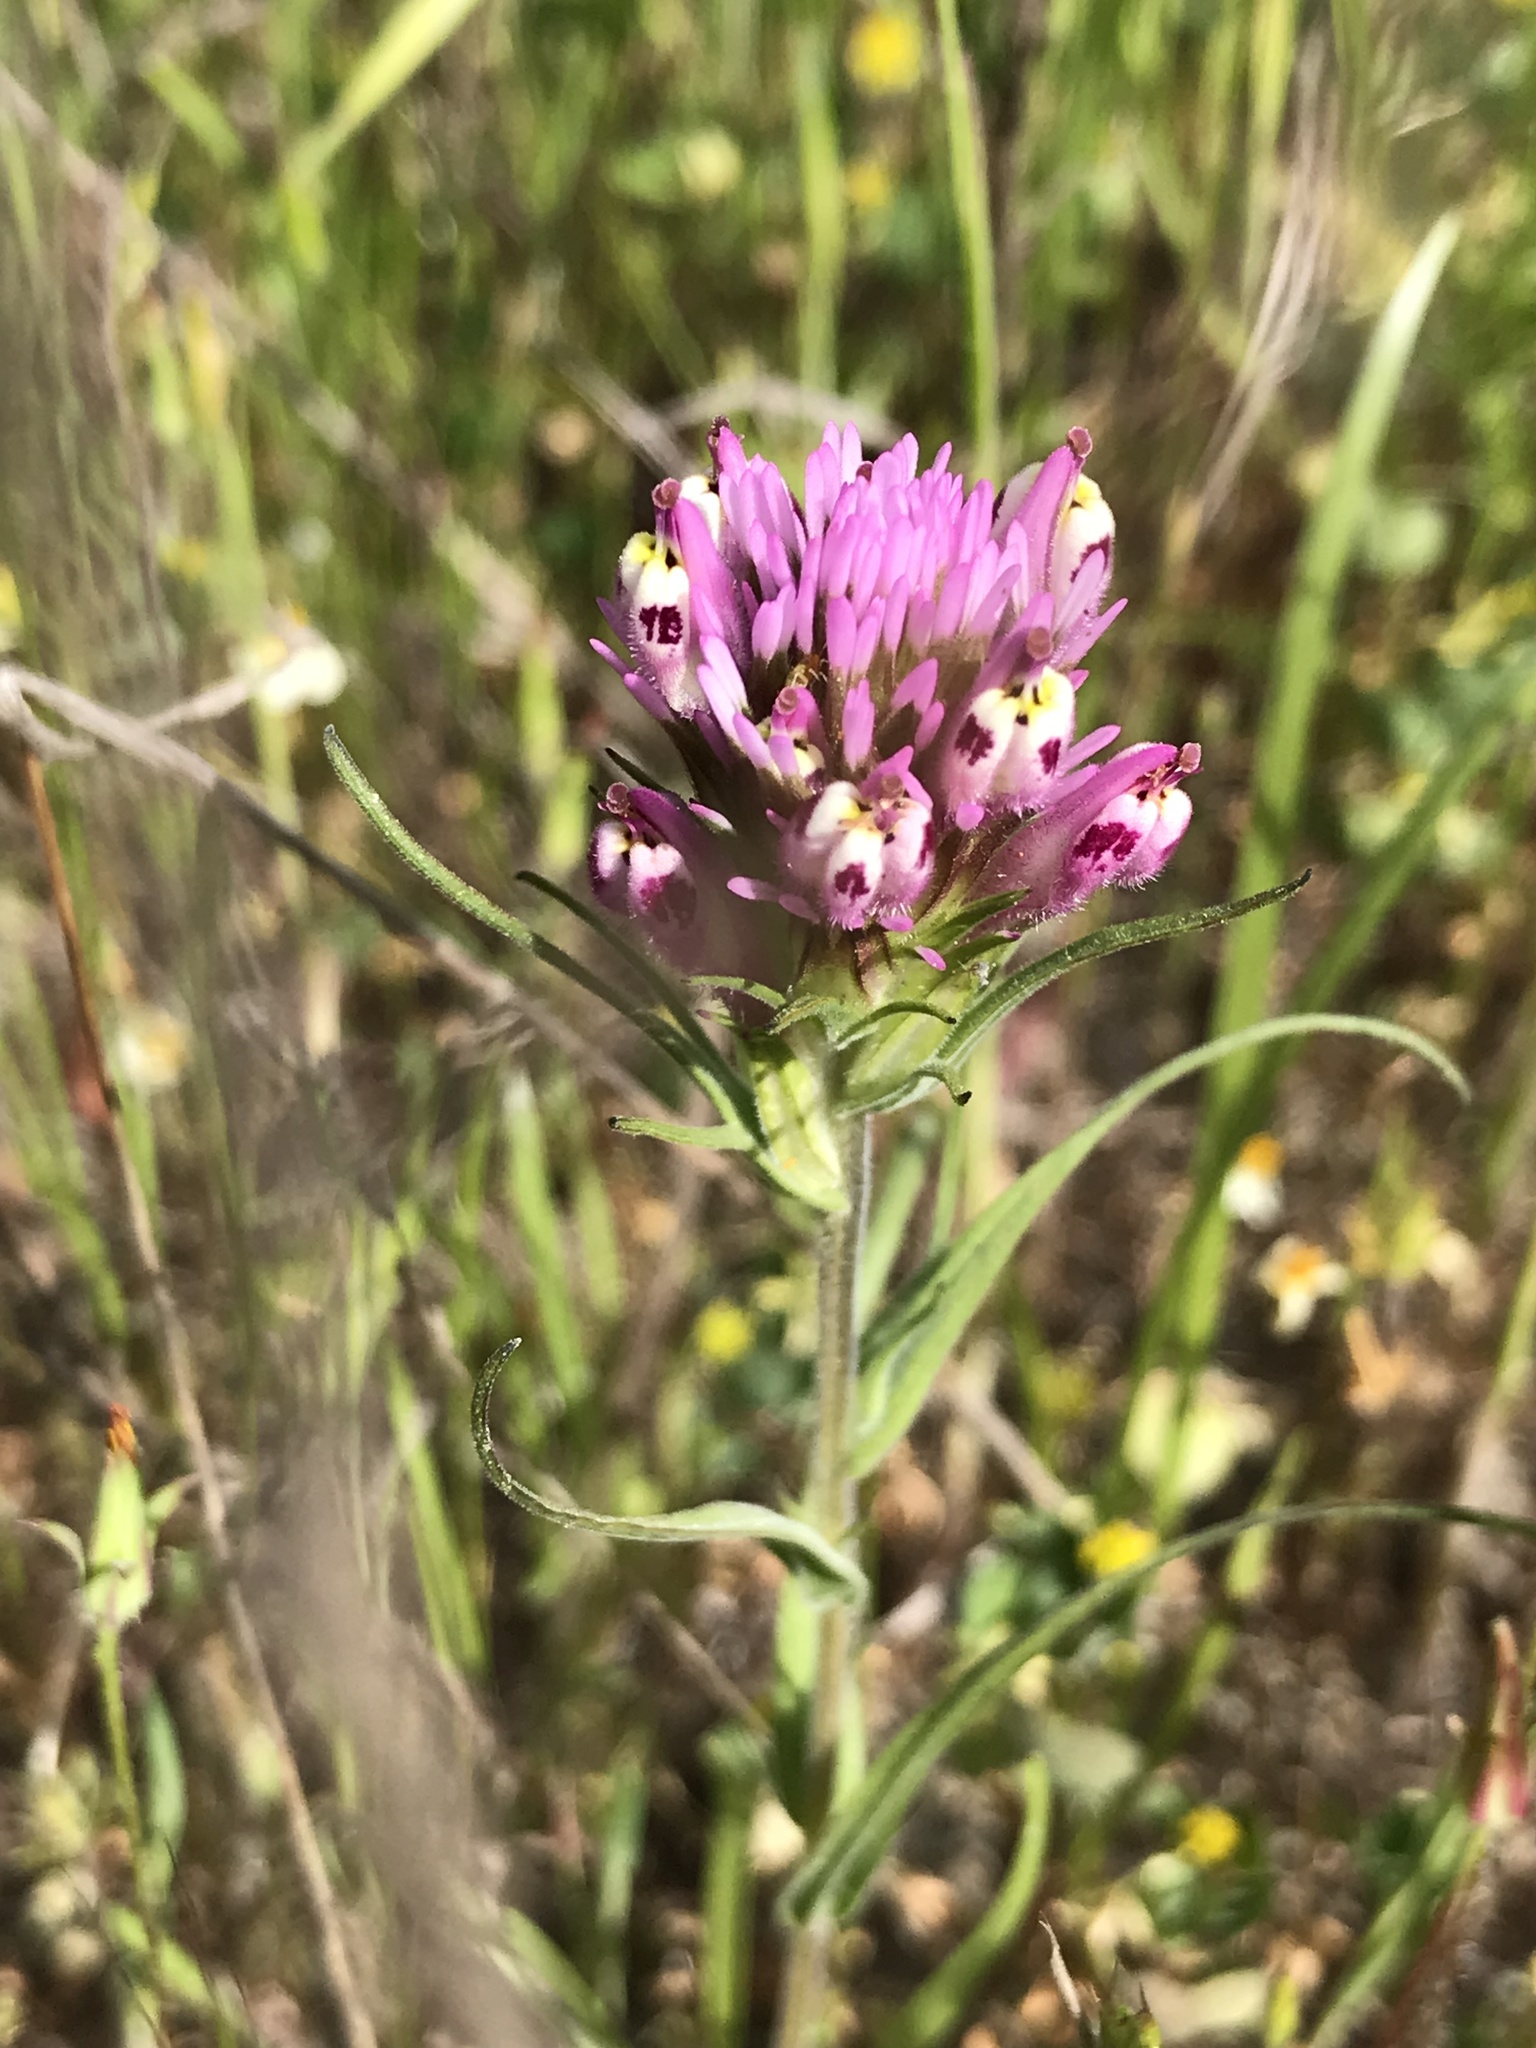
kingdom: Plantae
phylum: Tracheophyta
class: Magnoliopsida
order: Lamiales
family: Orobanchaceae
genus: Castilleja
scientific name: Castilleja densiflora
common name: Dense-flower indian paintbrush
